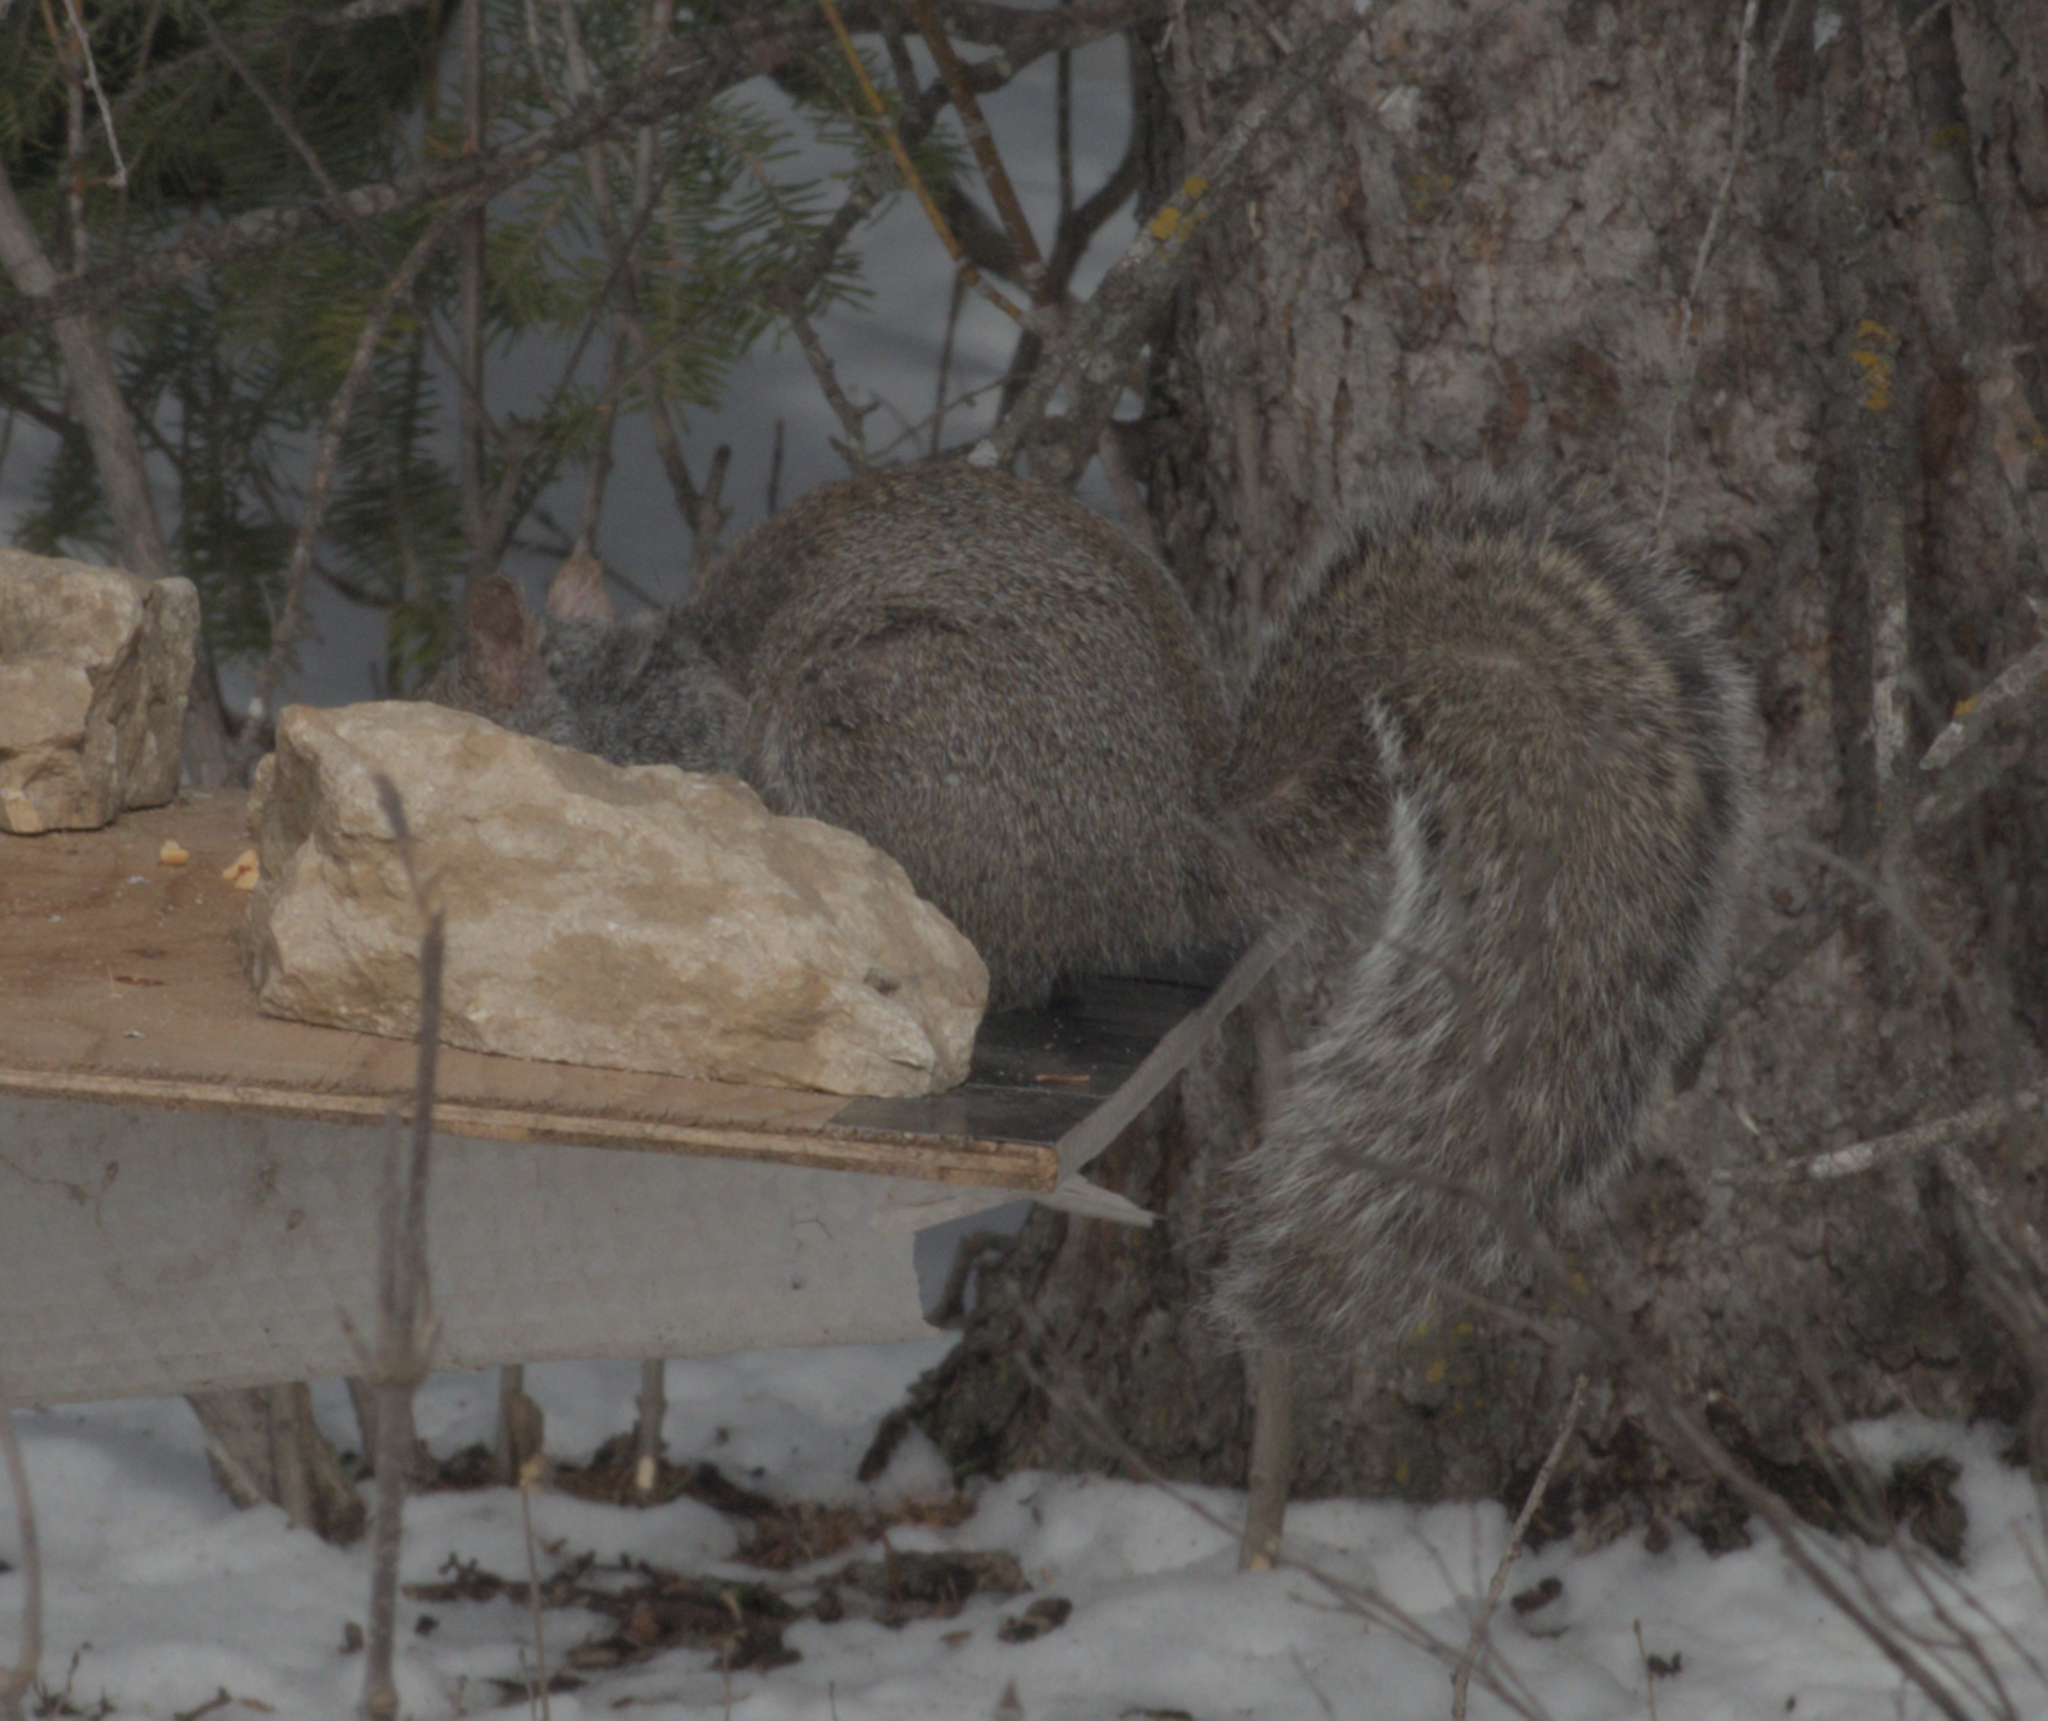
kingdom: Animalia
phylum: Chordata
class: Mammalia
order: Rodentia
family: Sciuridae
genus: Sciurus
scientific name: Sciurus carolinensis
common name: Eastern gray squirrel
